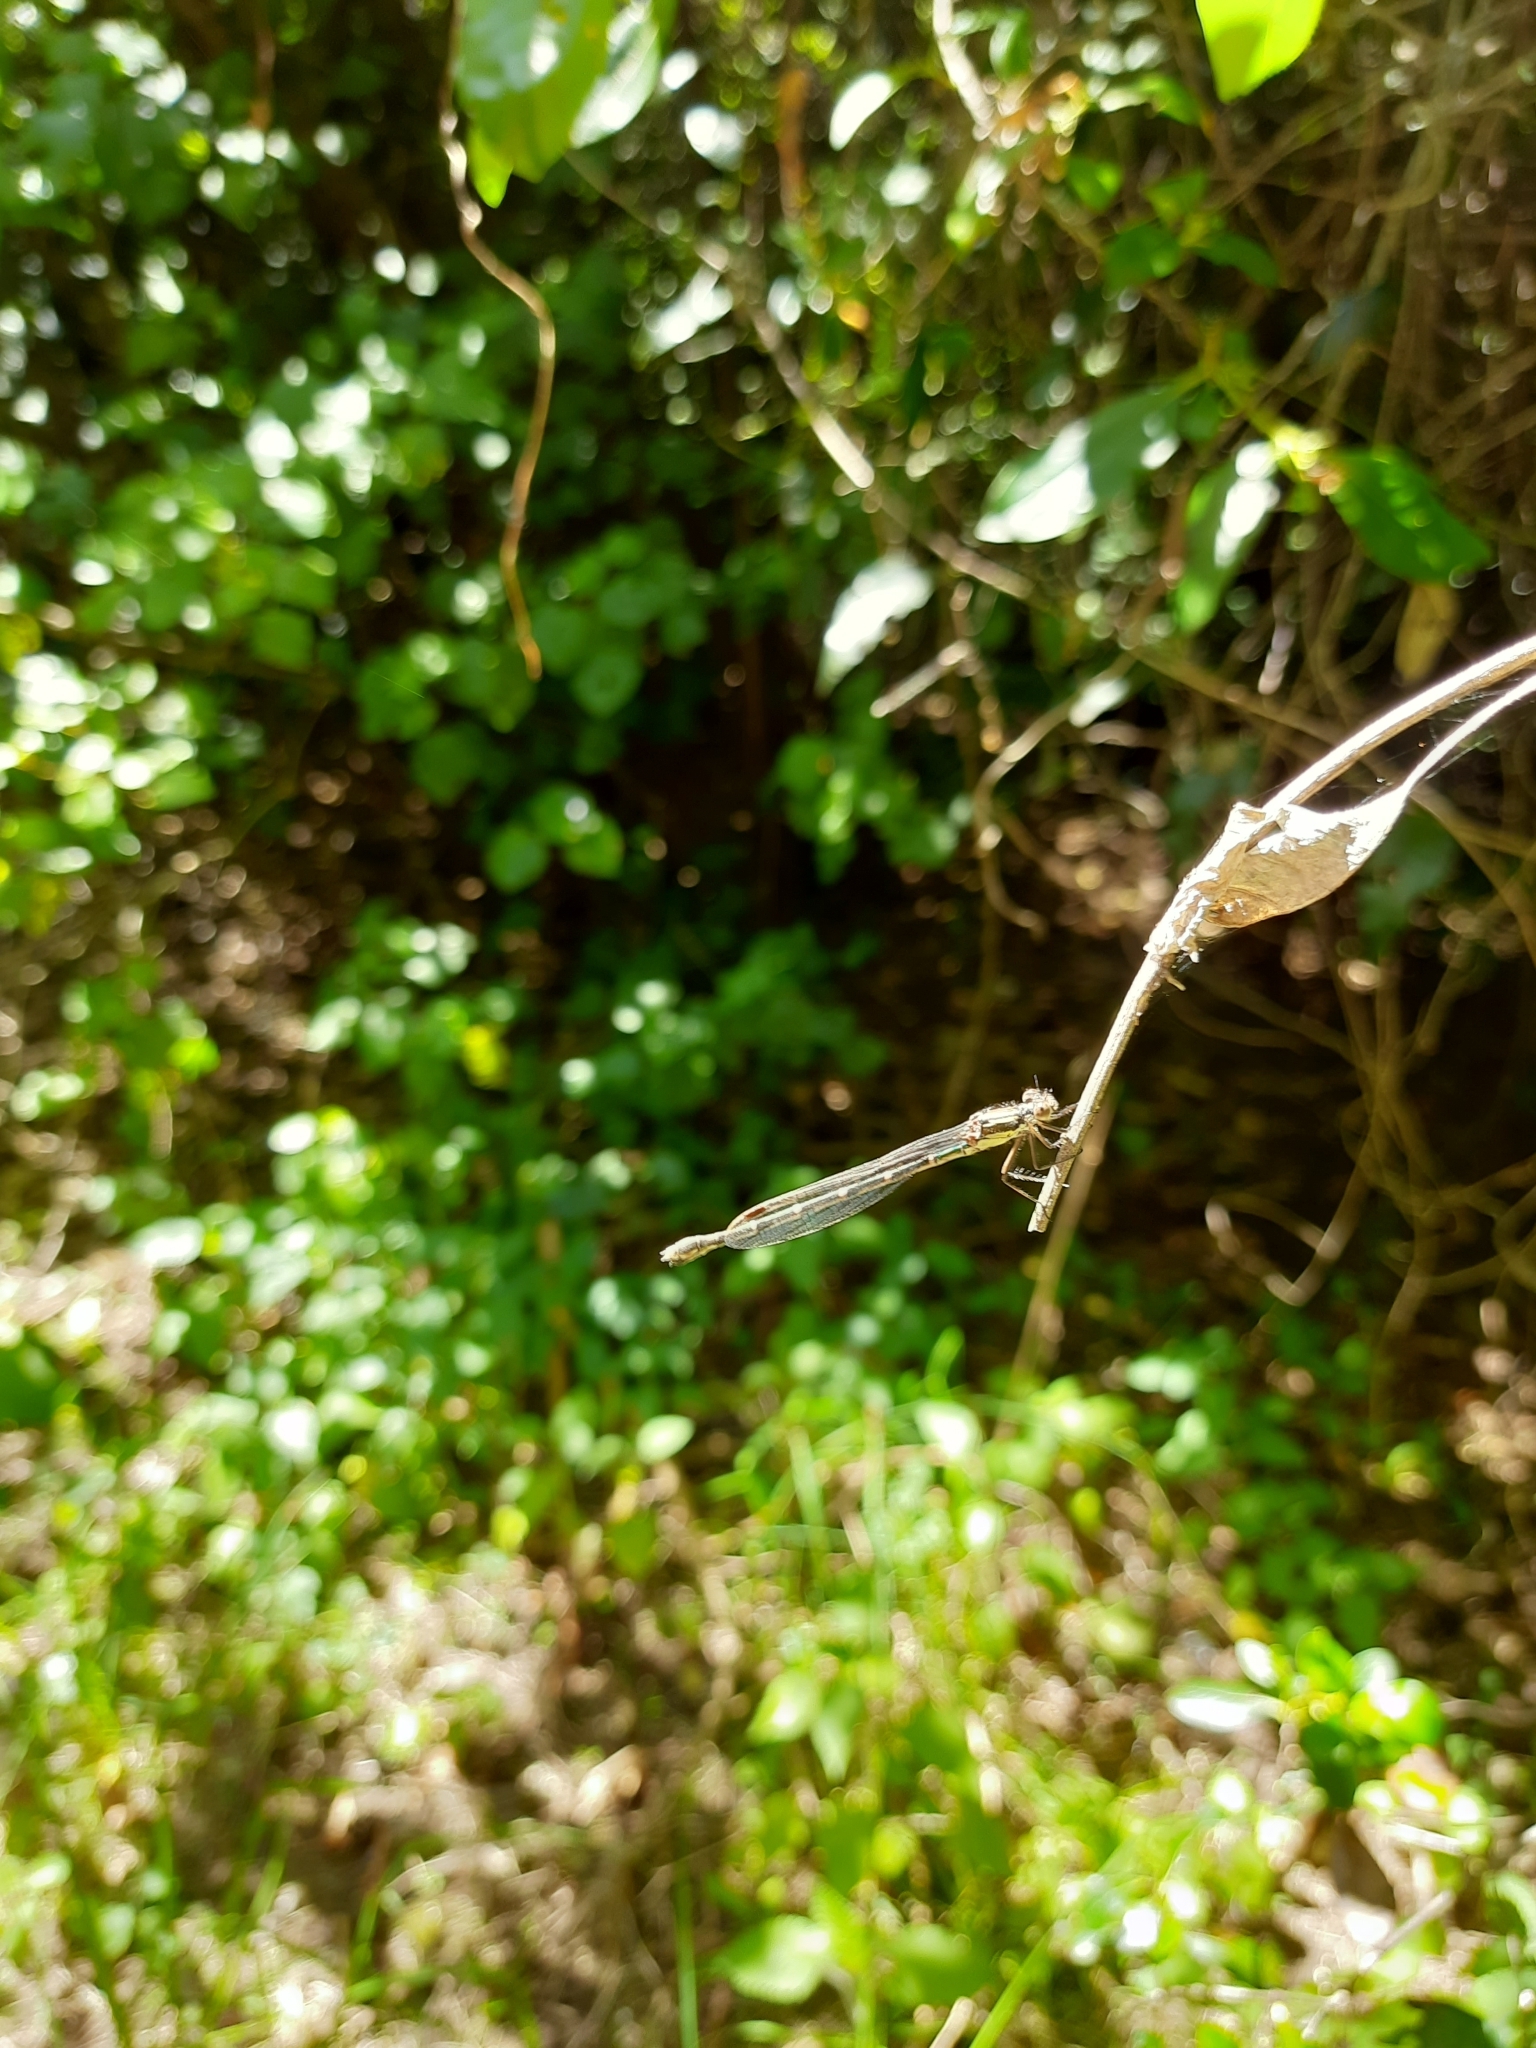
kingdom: Animalia
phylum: Arthropoda
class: Insecta
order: Odonata
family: Lestidae
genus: Austrolestes
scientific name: Austrolestes colensonis
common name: Blue damselfly
